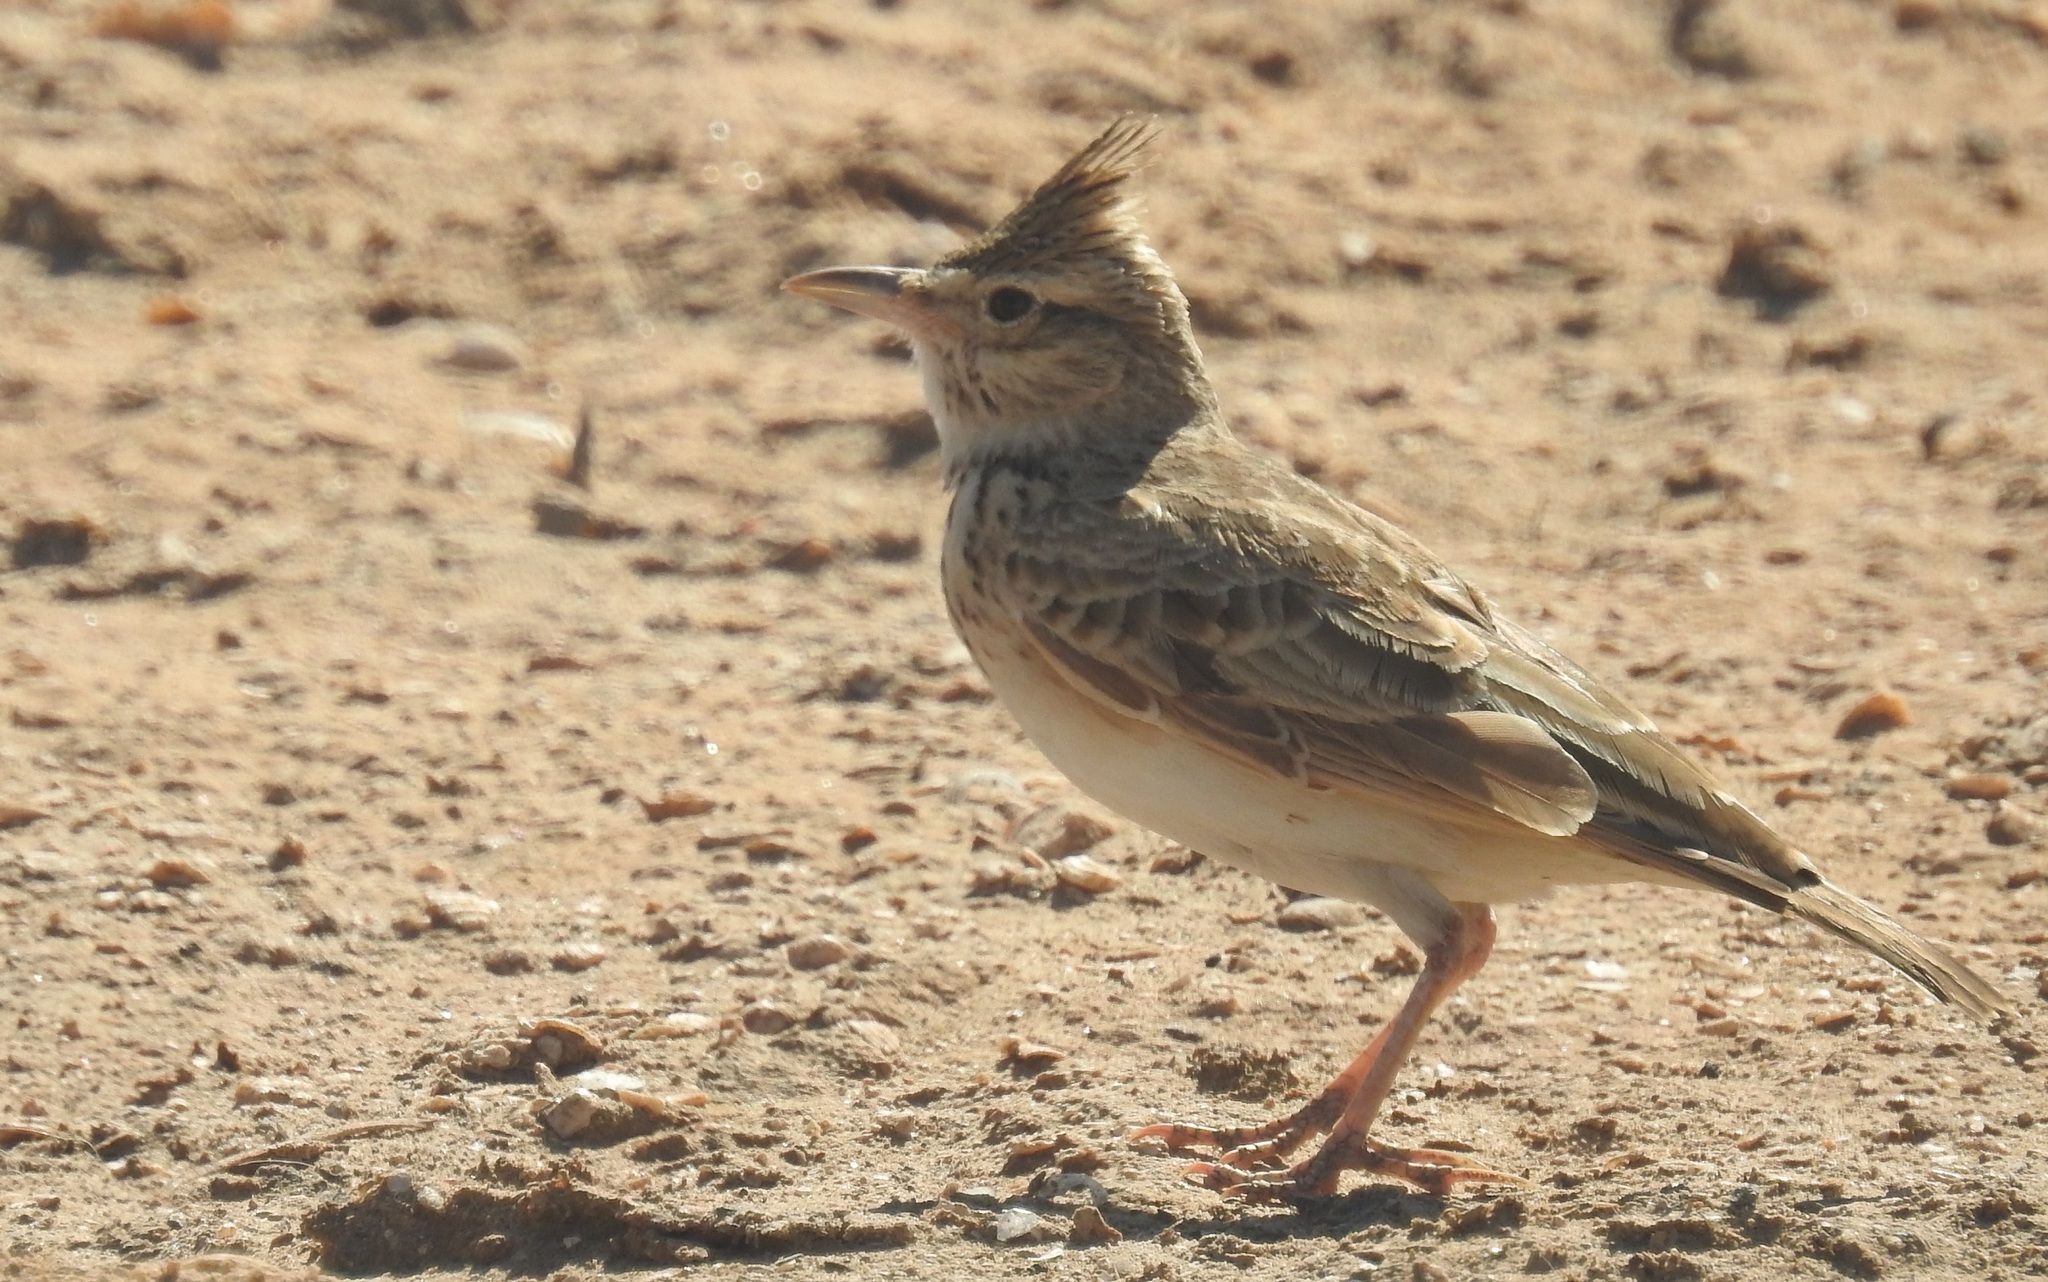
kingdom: Animalia
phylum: Chordata
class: Aves
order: Passeriformes
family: Alaudidae
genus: Galerida
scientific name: Galerida cristata
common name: Crested lark
